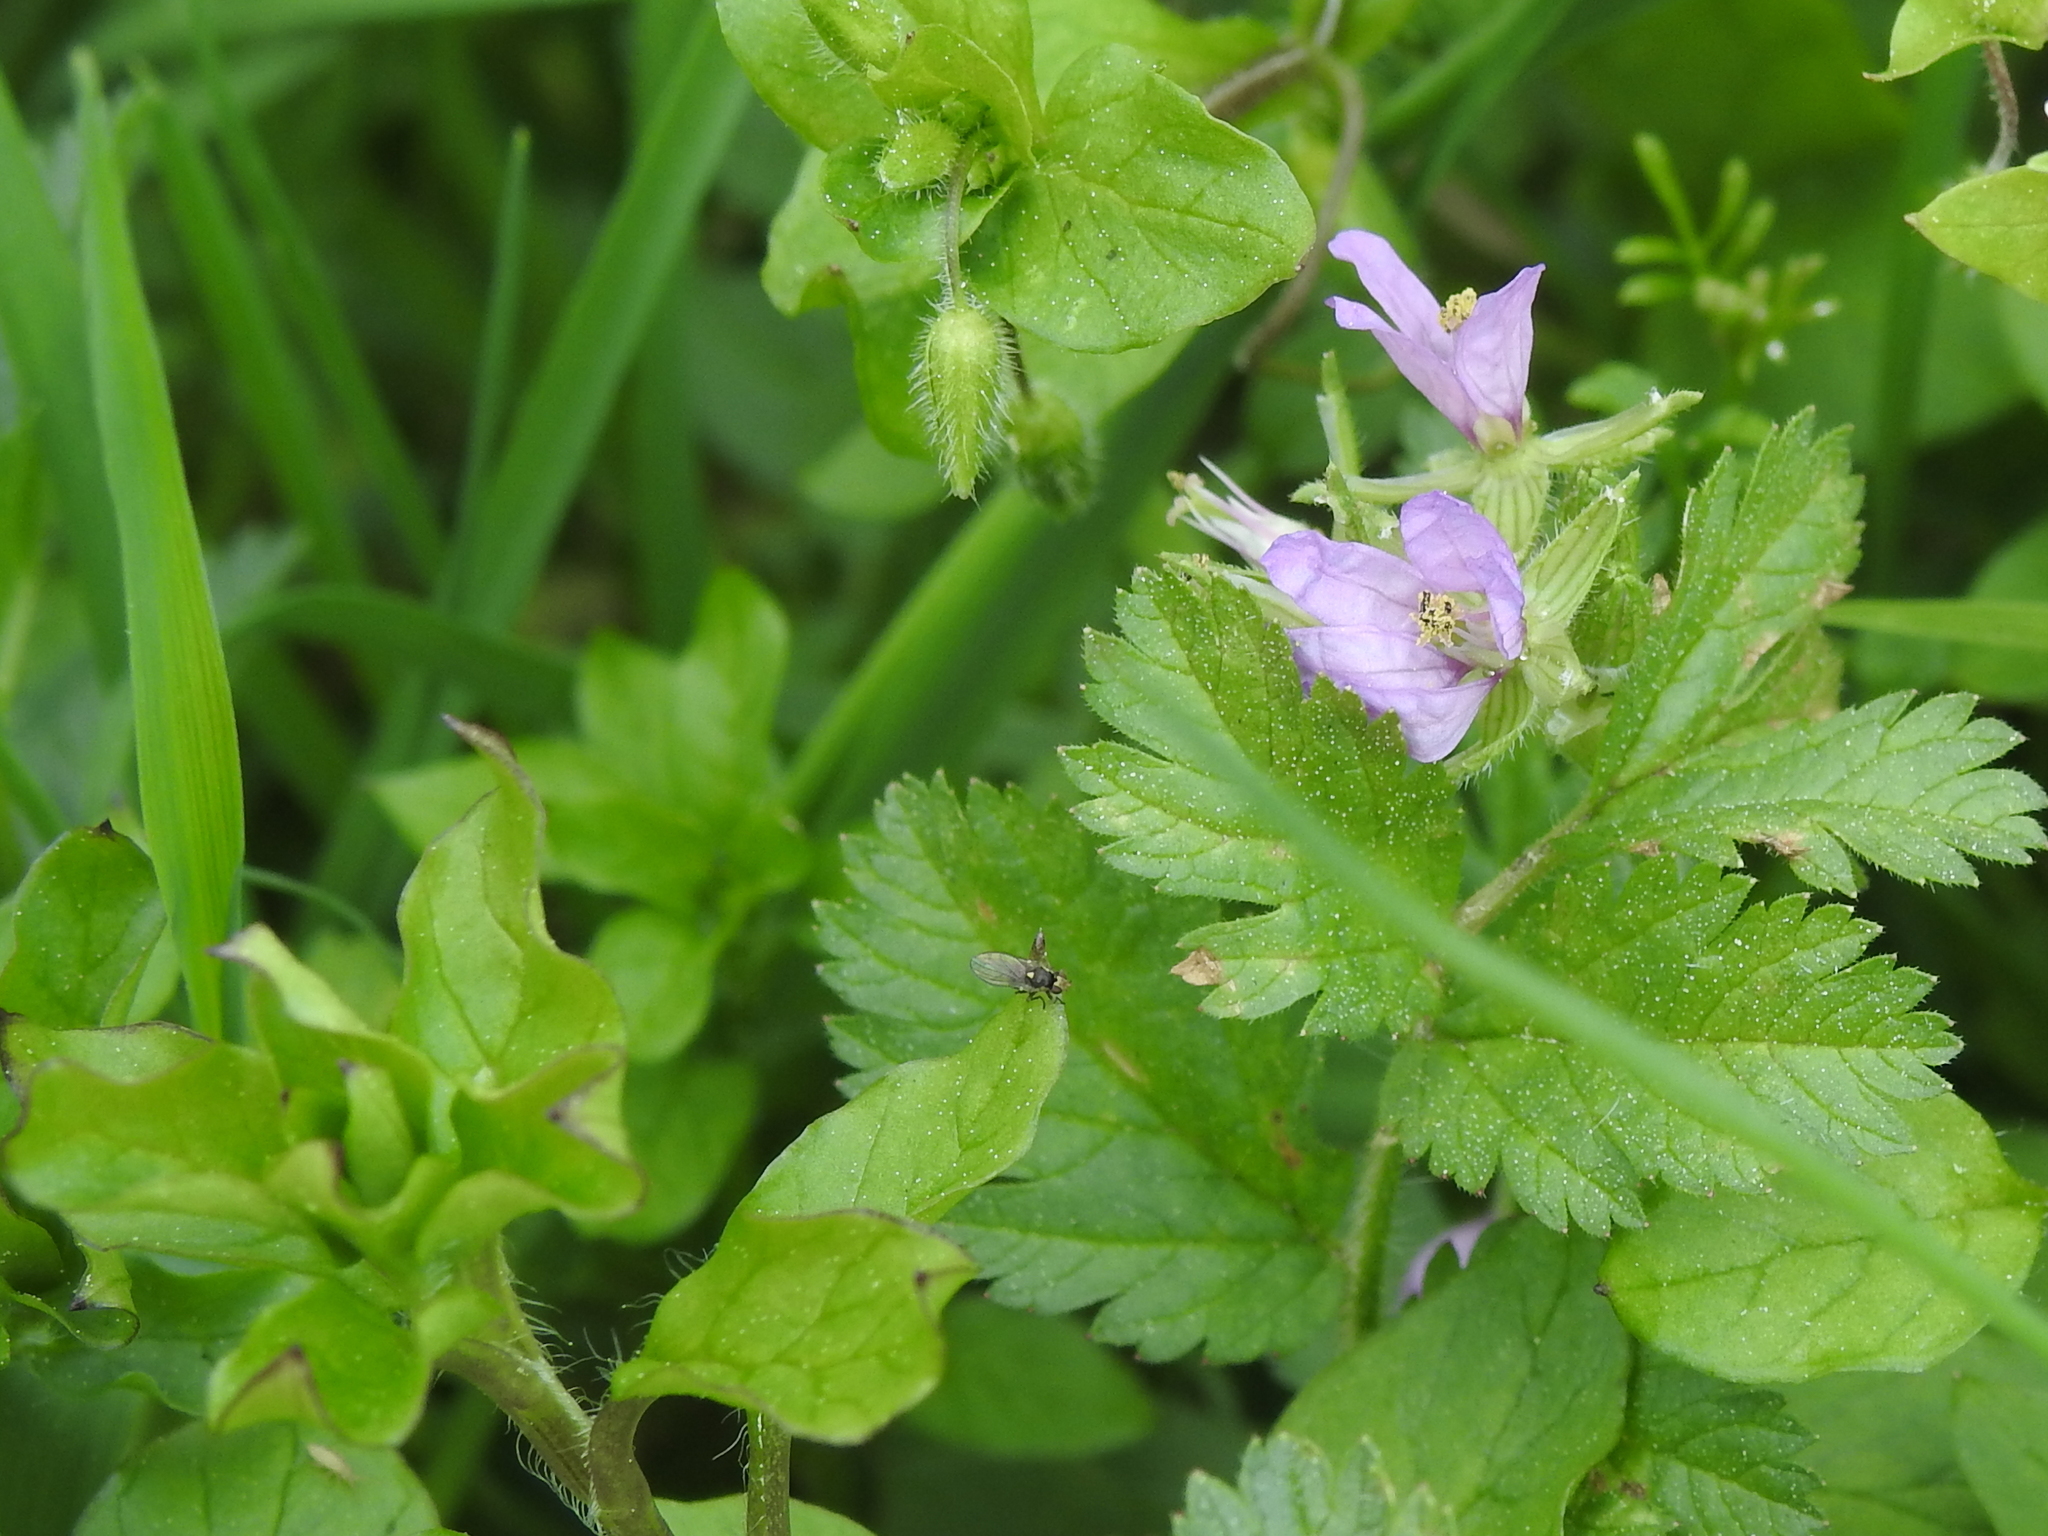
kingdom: Plantae
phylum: Tracheophyta
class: Magnoliopsida
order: Geraniales
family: Geraniaceae
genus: Erodium
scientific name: Erodium moschatum
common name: Musk stork's-bill
